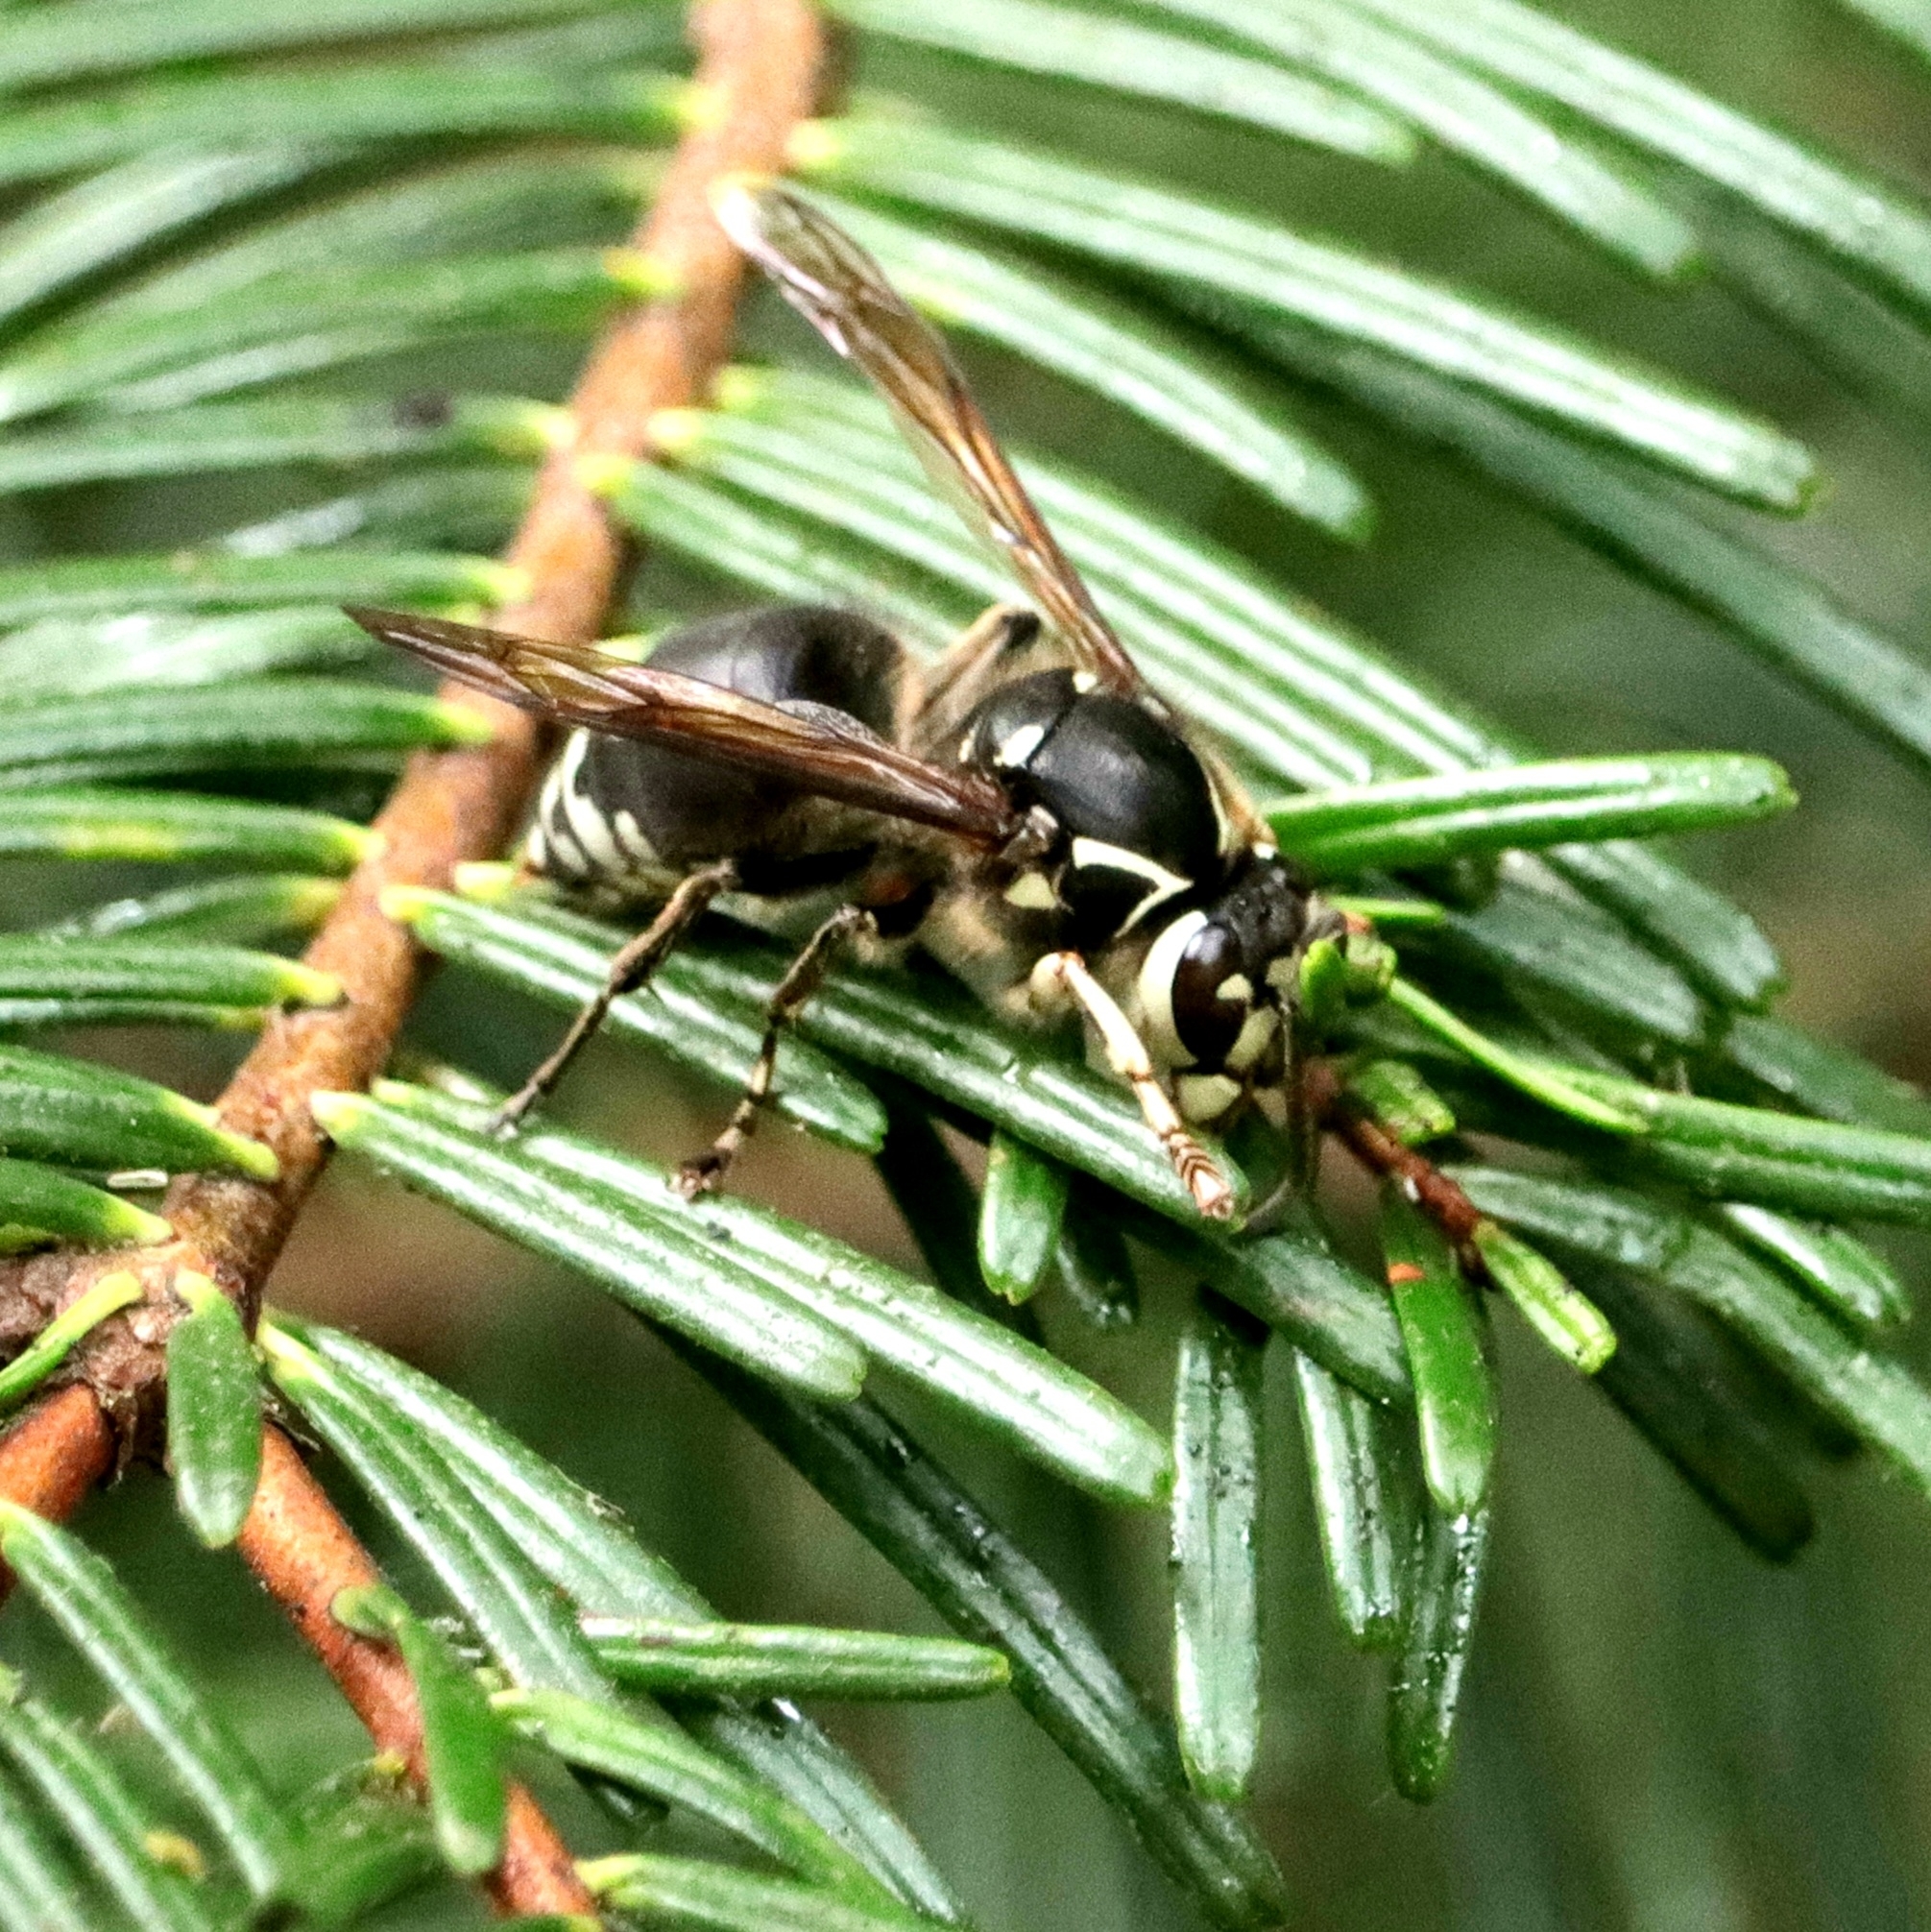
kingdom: Animalia
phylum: Arthropoda
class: Insecta
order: Hymenoptera
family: Vespidae
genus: Dolichovespula
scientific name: Dolichovespula maculata
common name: Bald-faced hornet
